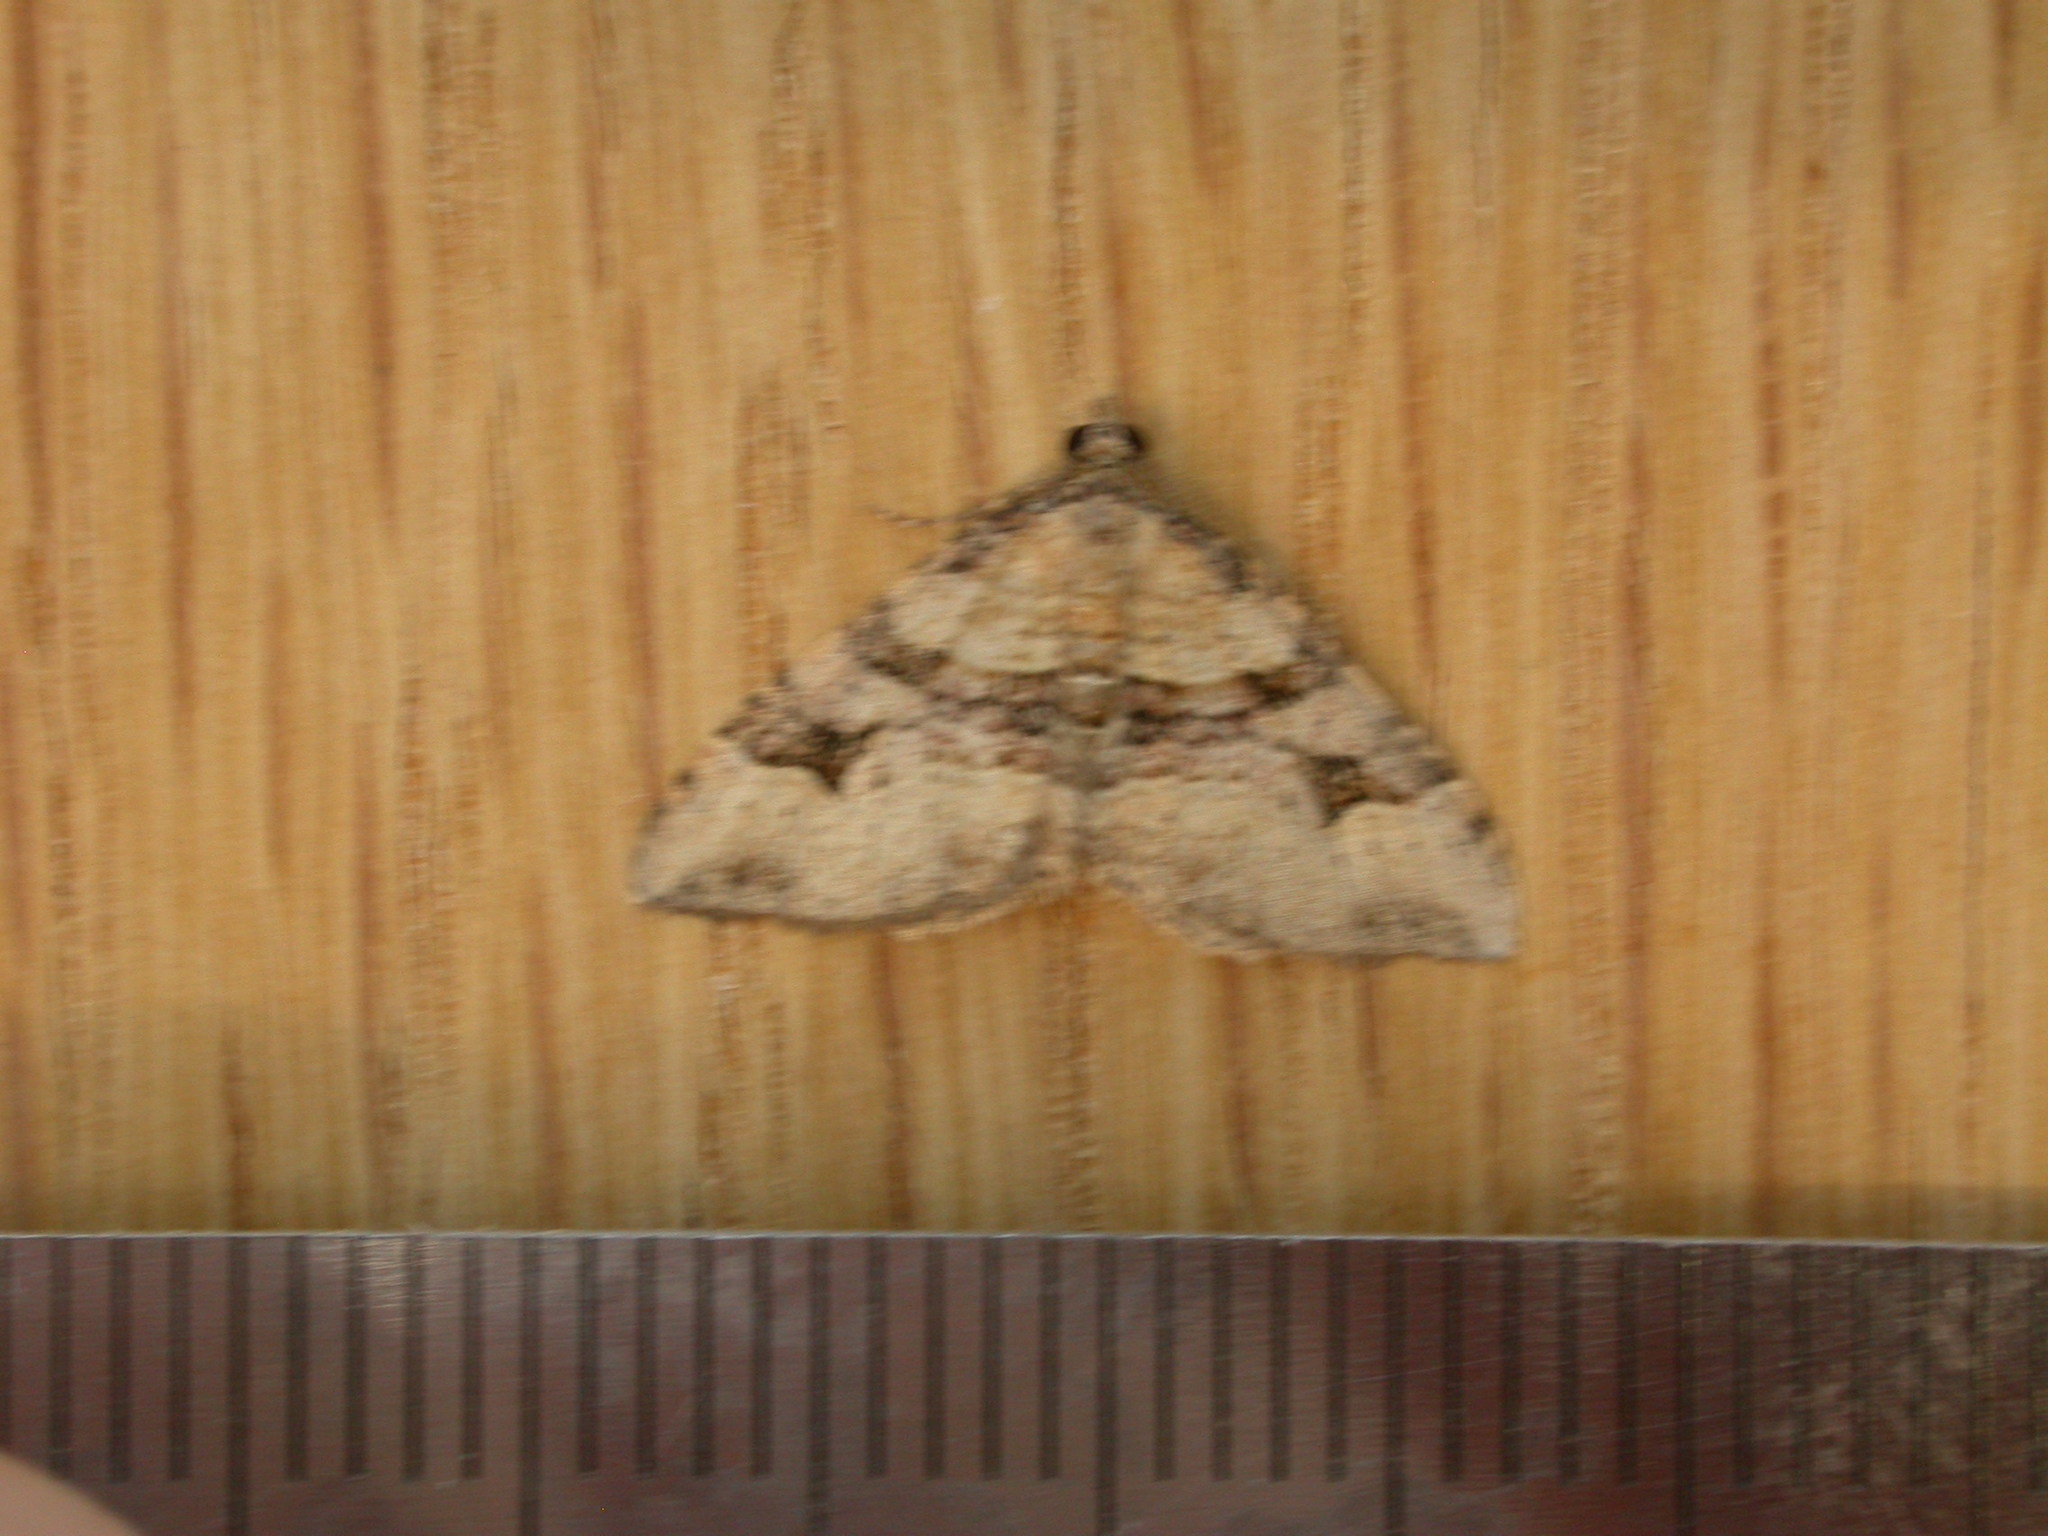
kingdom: Animalia
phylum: Arthropoda
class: Insecta
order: Lepidoptera
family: Geometridae
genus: Epyaxa
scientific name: Epyaxa subidaria
